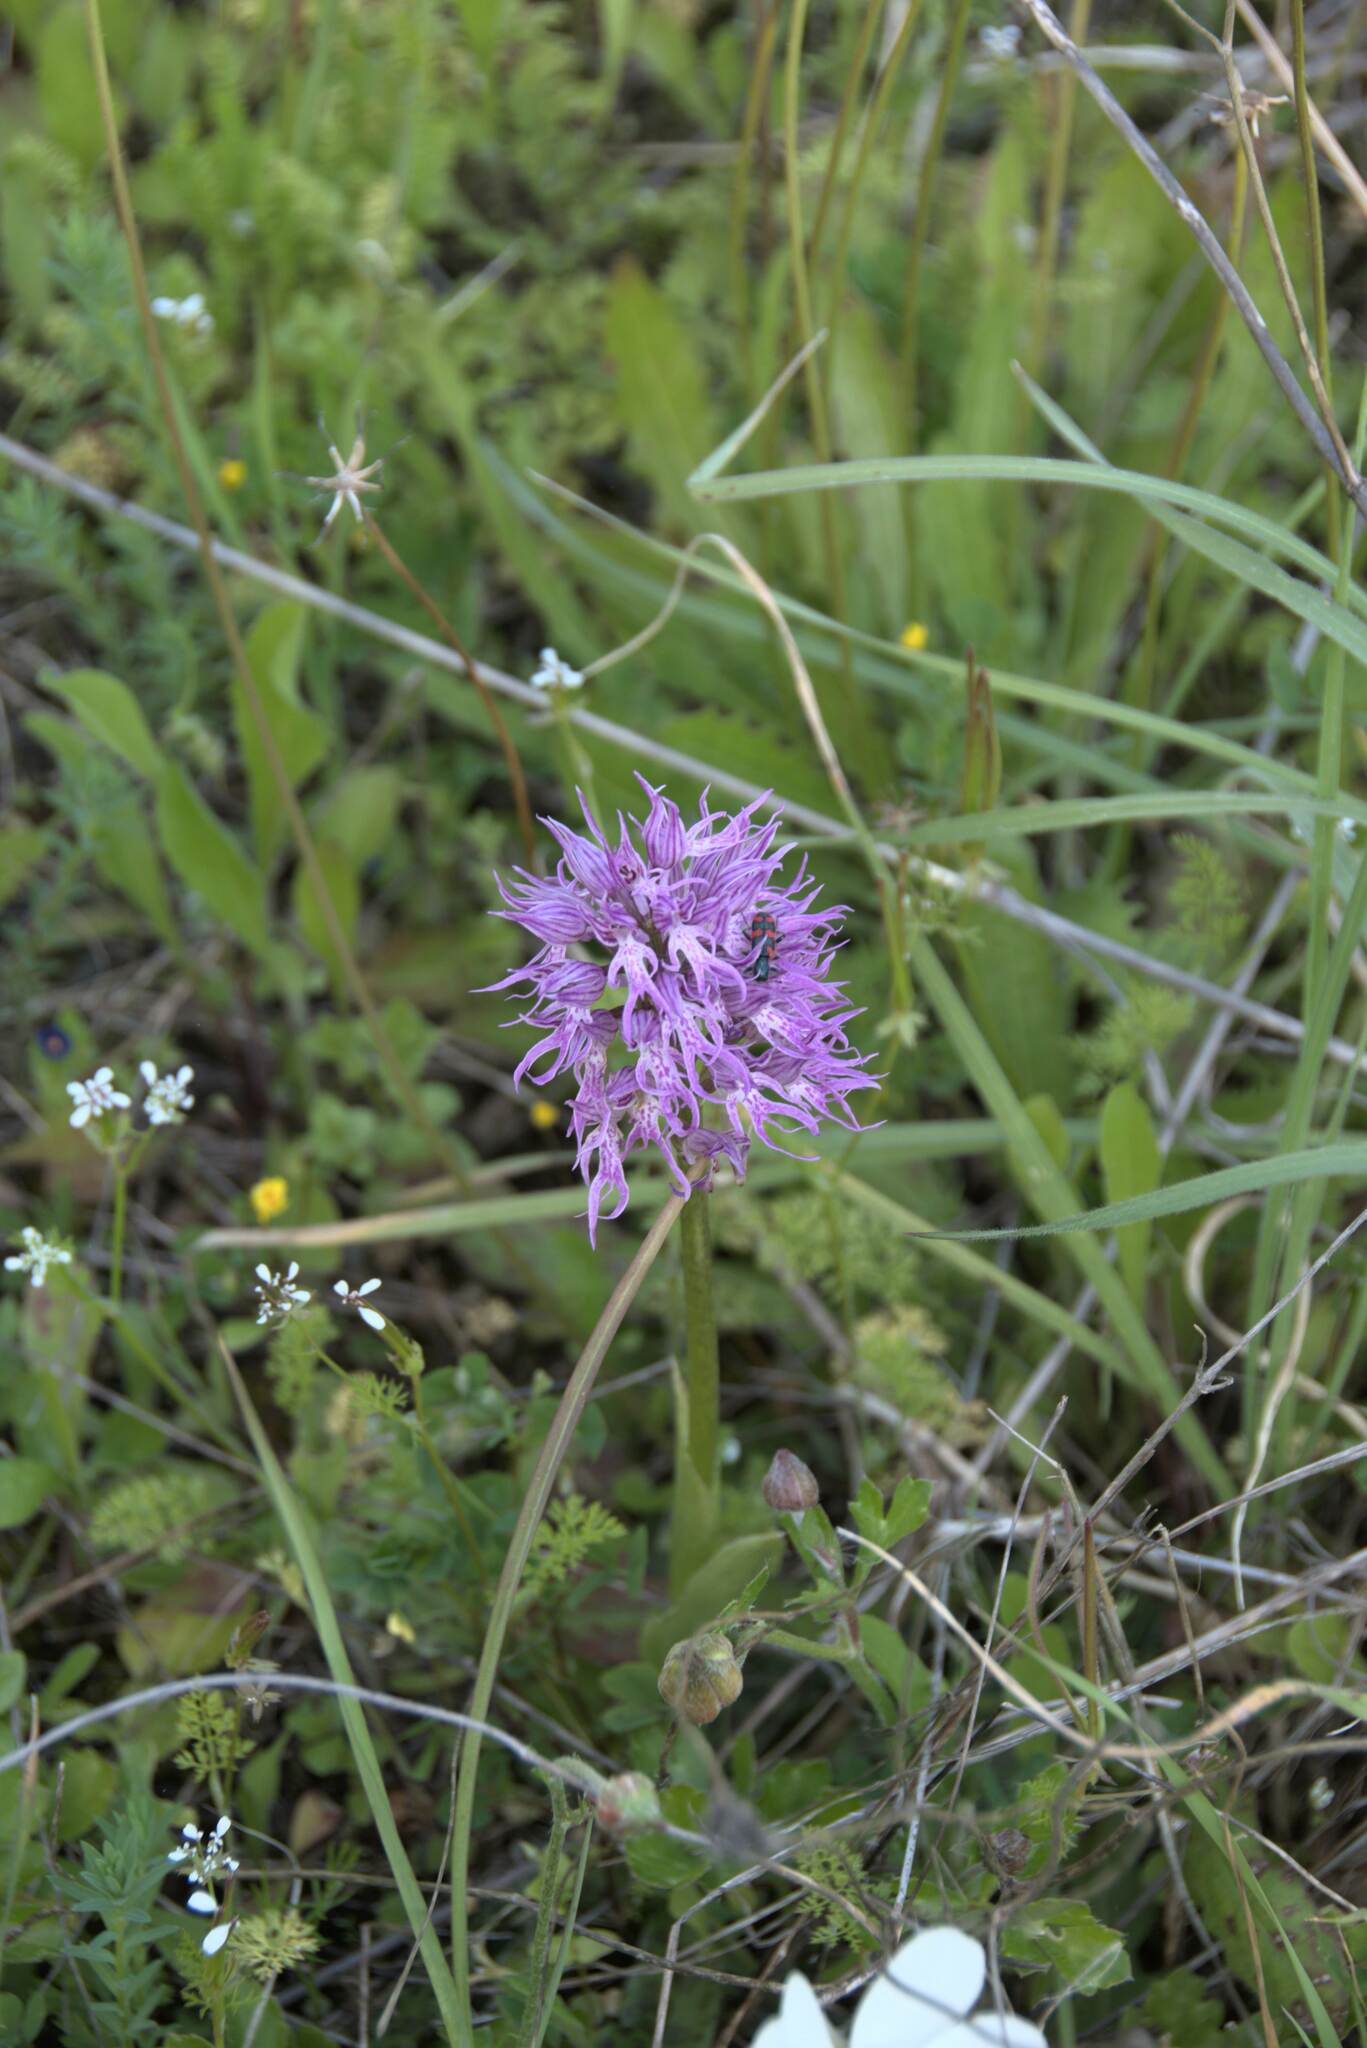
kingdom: Plantae
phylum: Tracheophyta
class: Liliopsida
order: Asparagales
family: Orchidaceae
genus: Orchis
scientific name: Orchis italica
